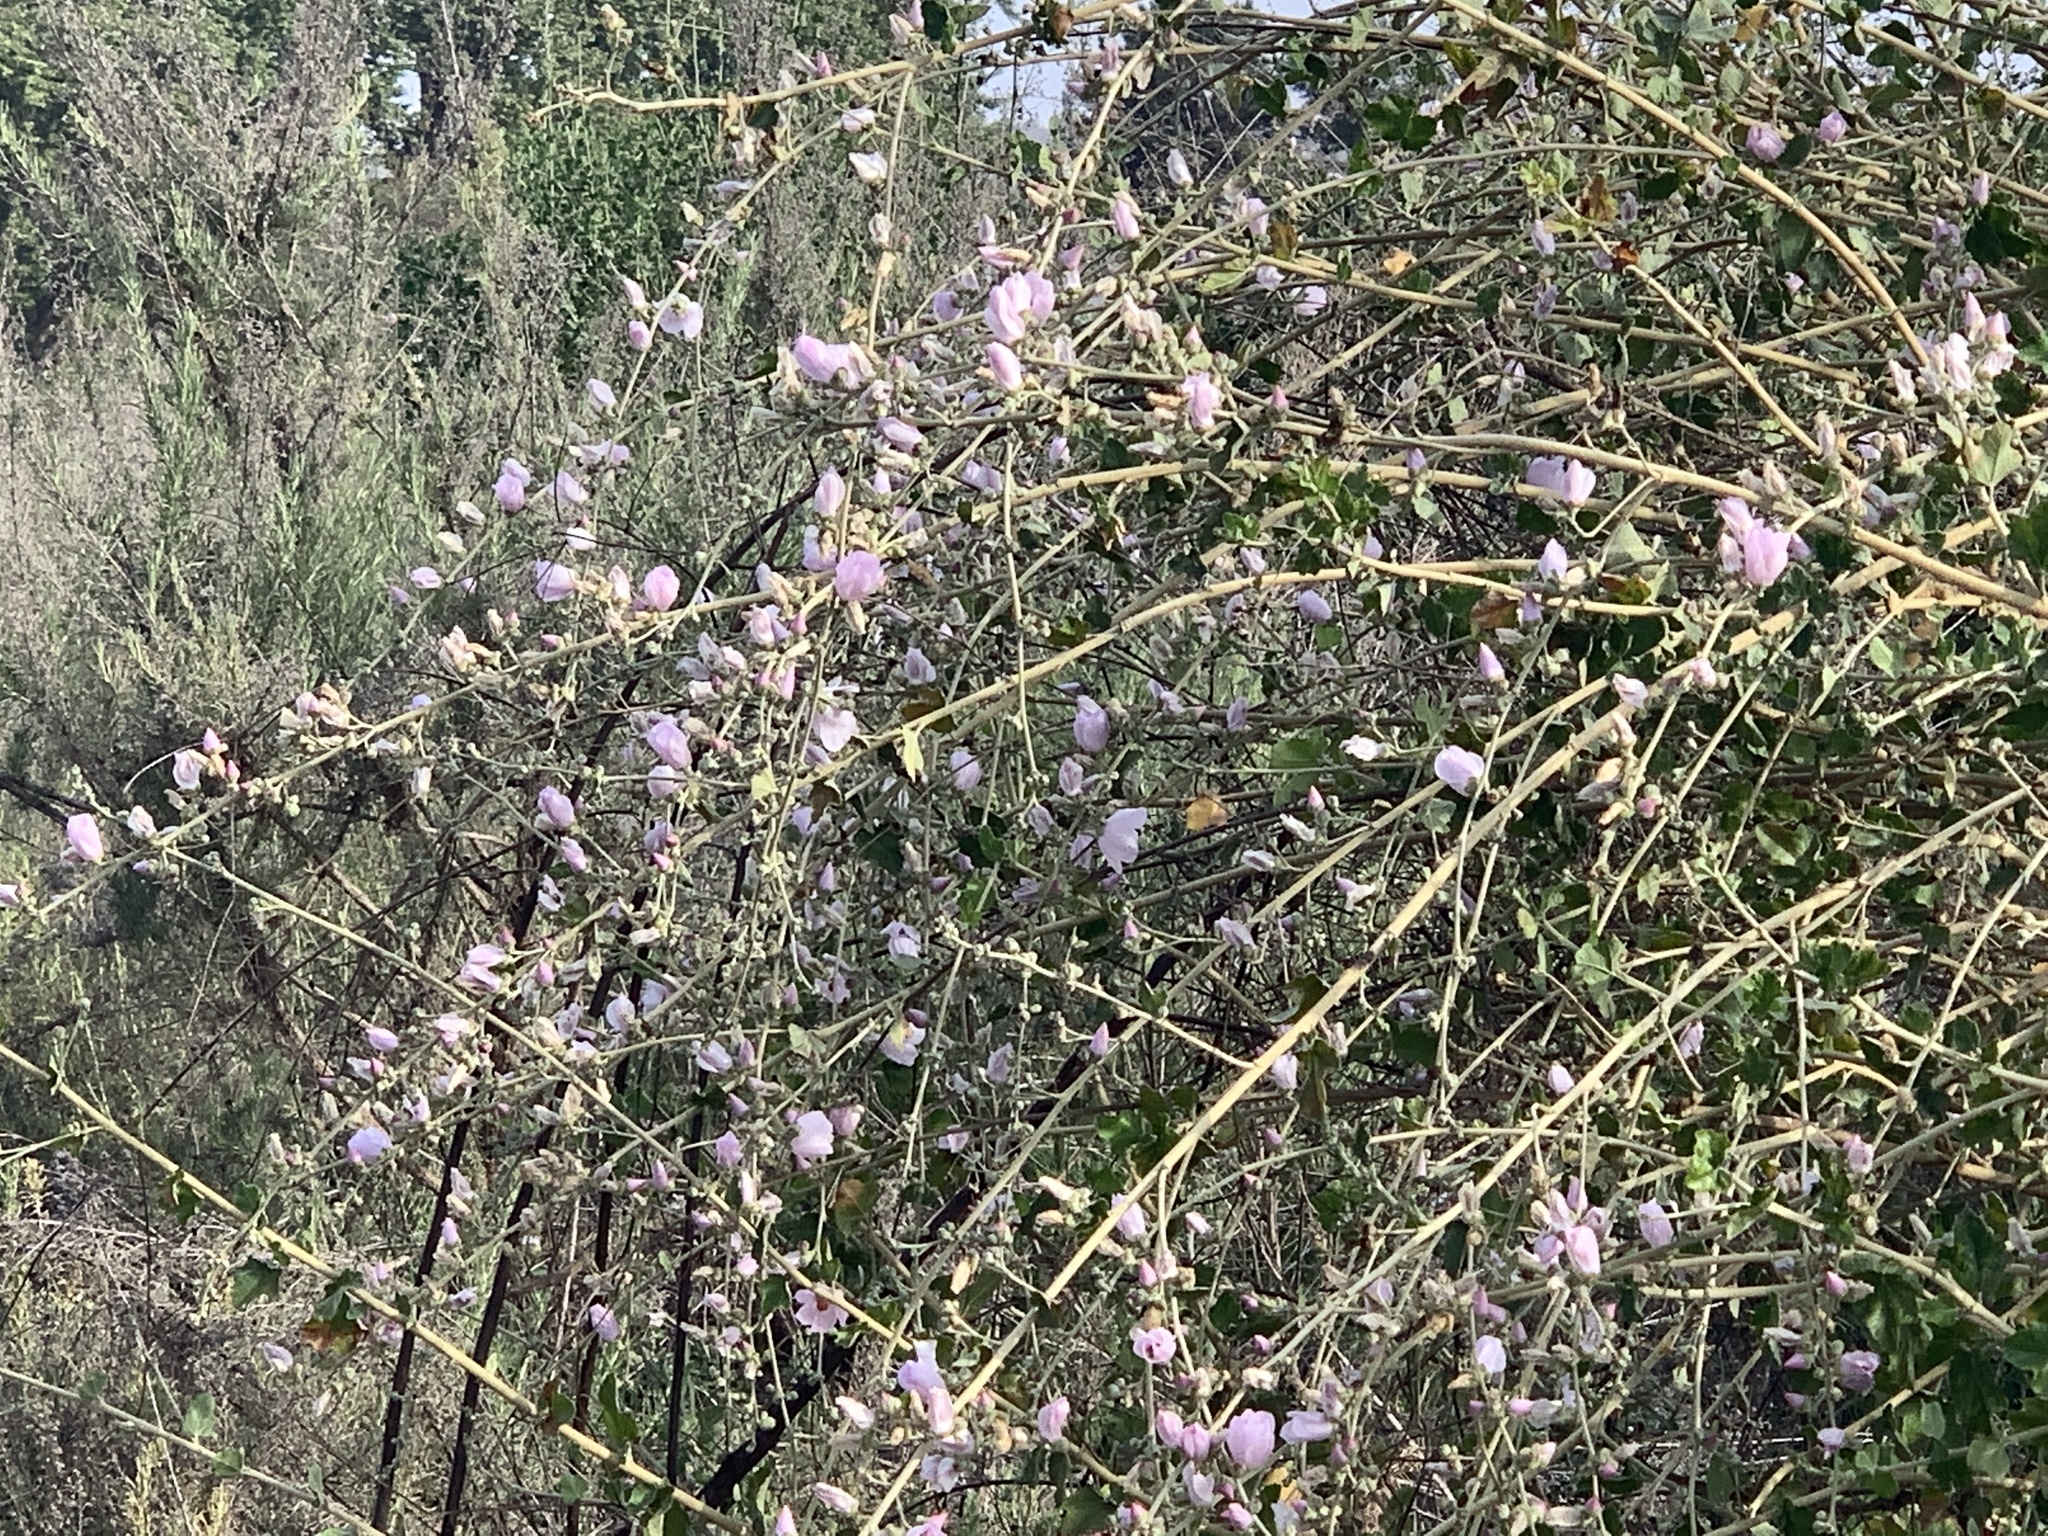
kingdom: Plantae
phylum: Tracheophyta
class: Magnoliopsida
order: Malvales
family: Malvaceae
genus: Malacothamnus
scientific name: Malacothamnus fasciculatus
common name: Sant cruz island bush-mallow
